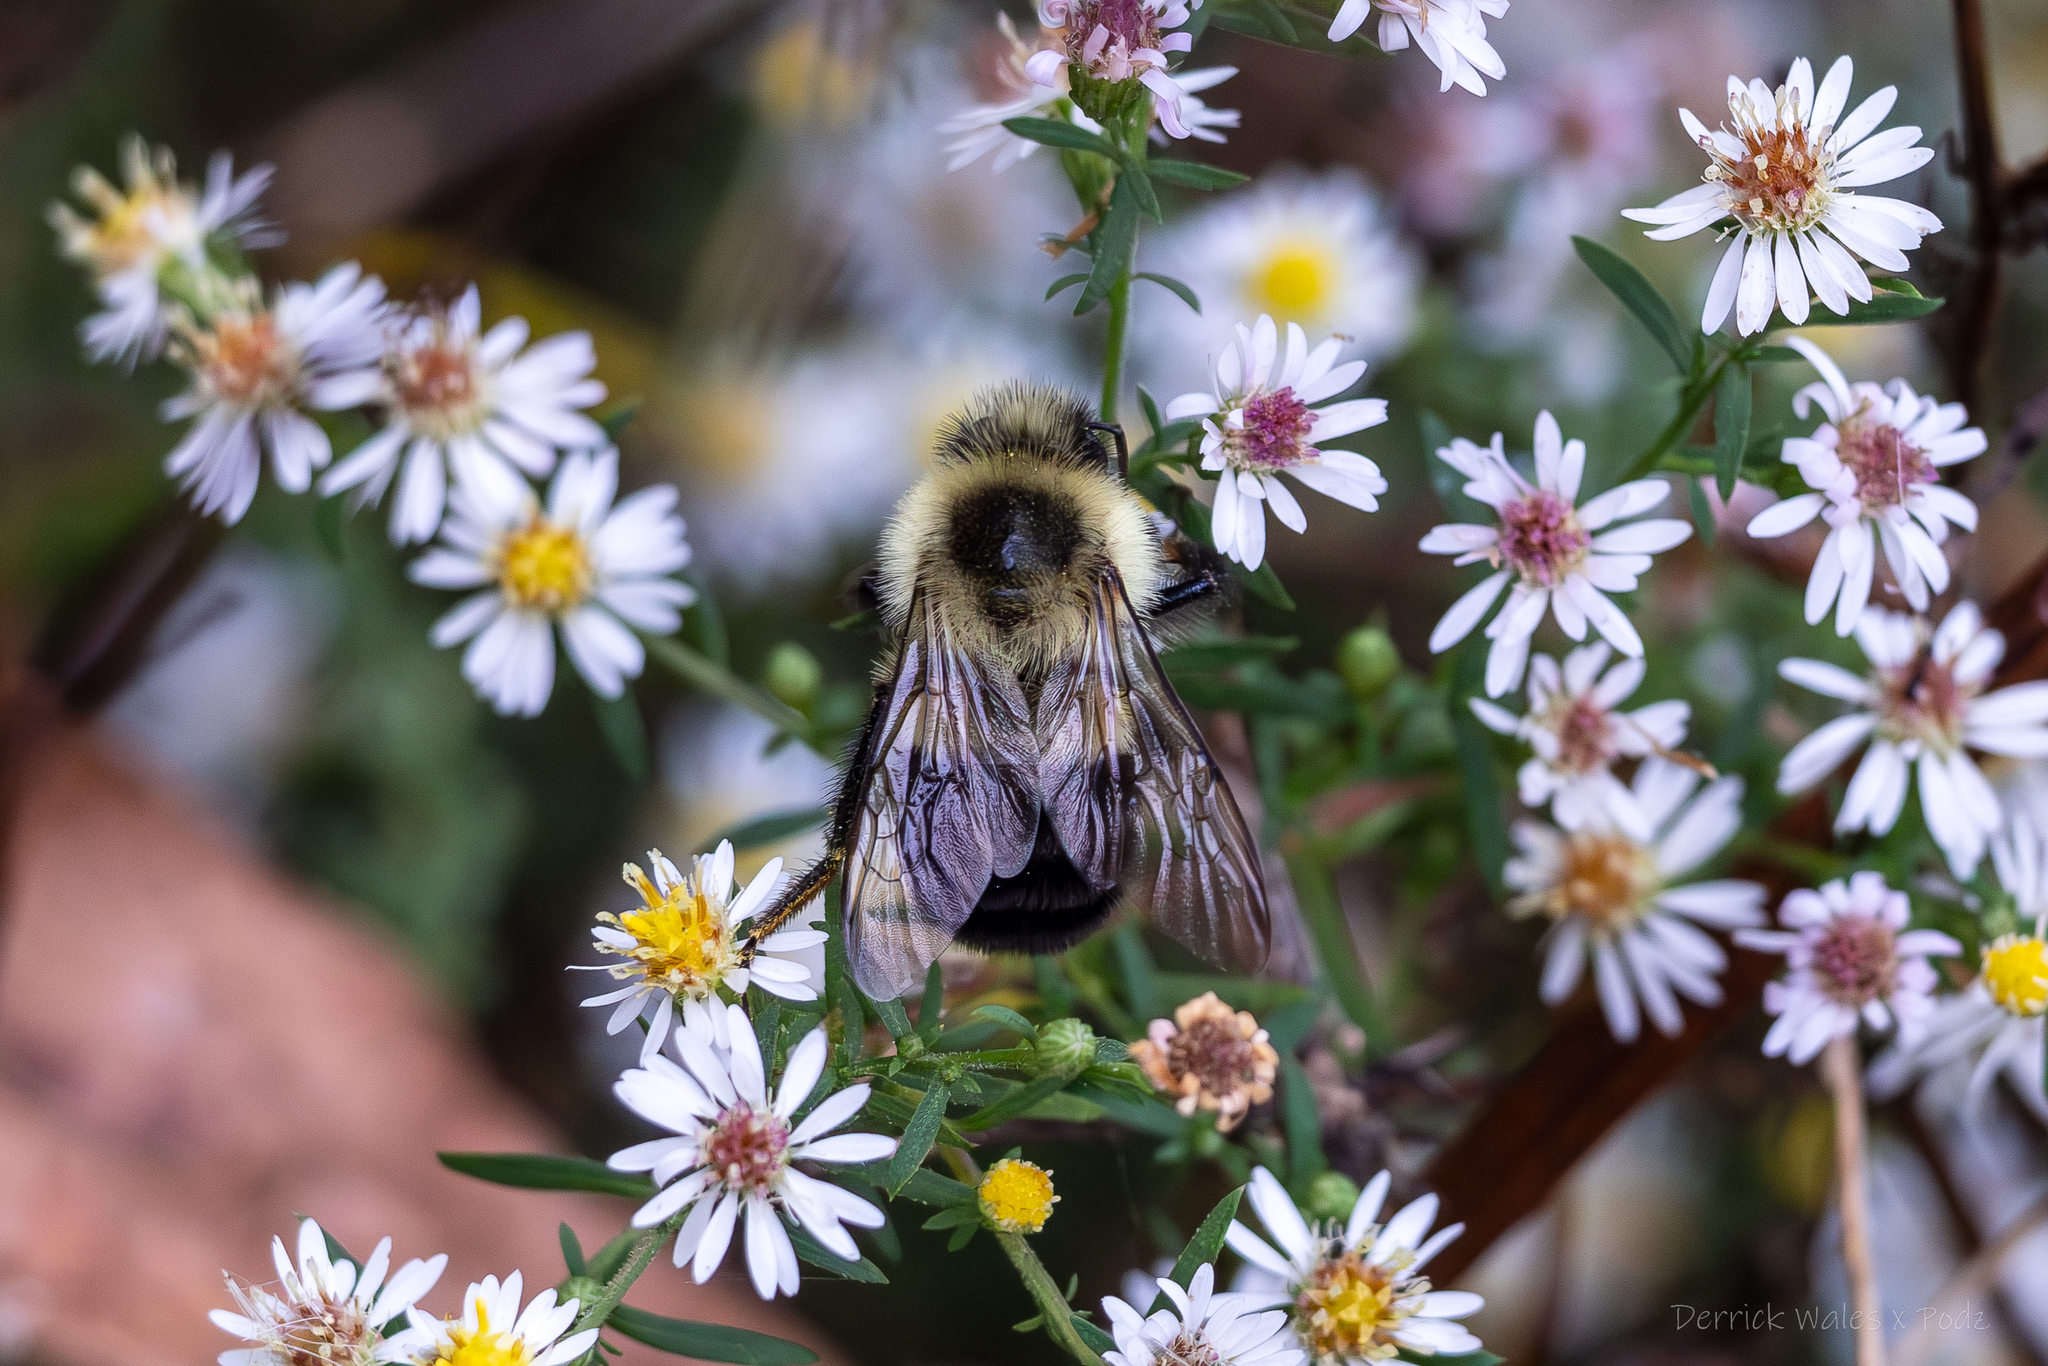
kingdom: Animalia
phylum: Arthropoda
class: Insecta
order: Hymenoptera
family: Apidae
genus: Bombus
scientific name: Bombus impatiens
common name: Common eastern bumble bee
